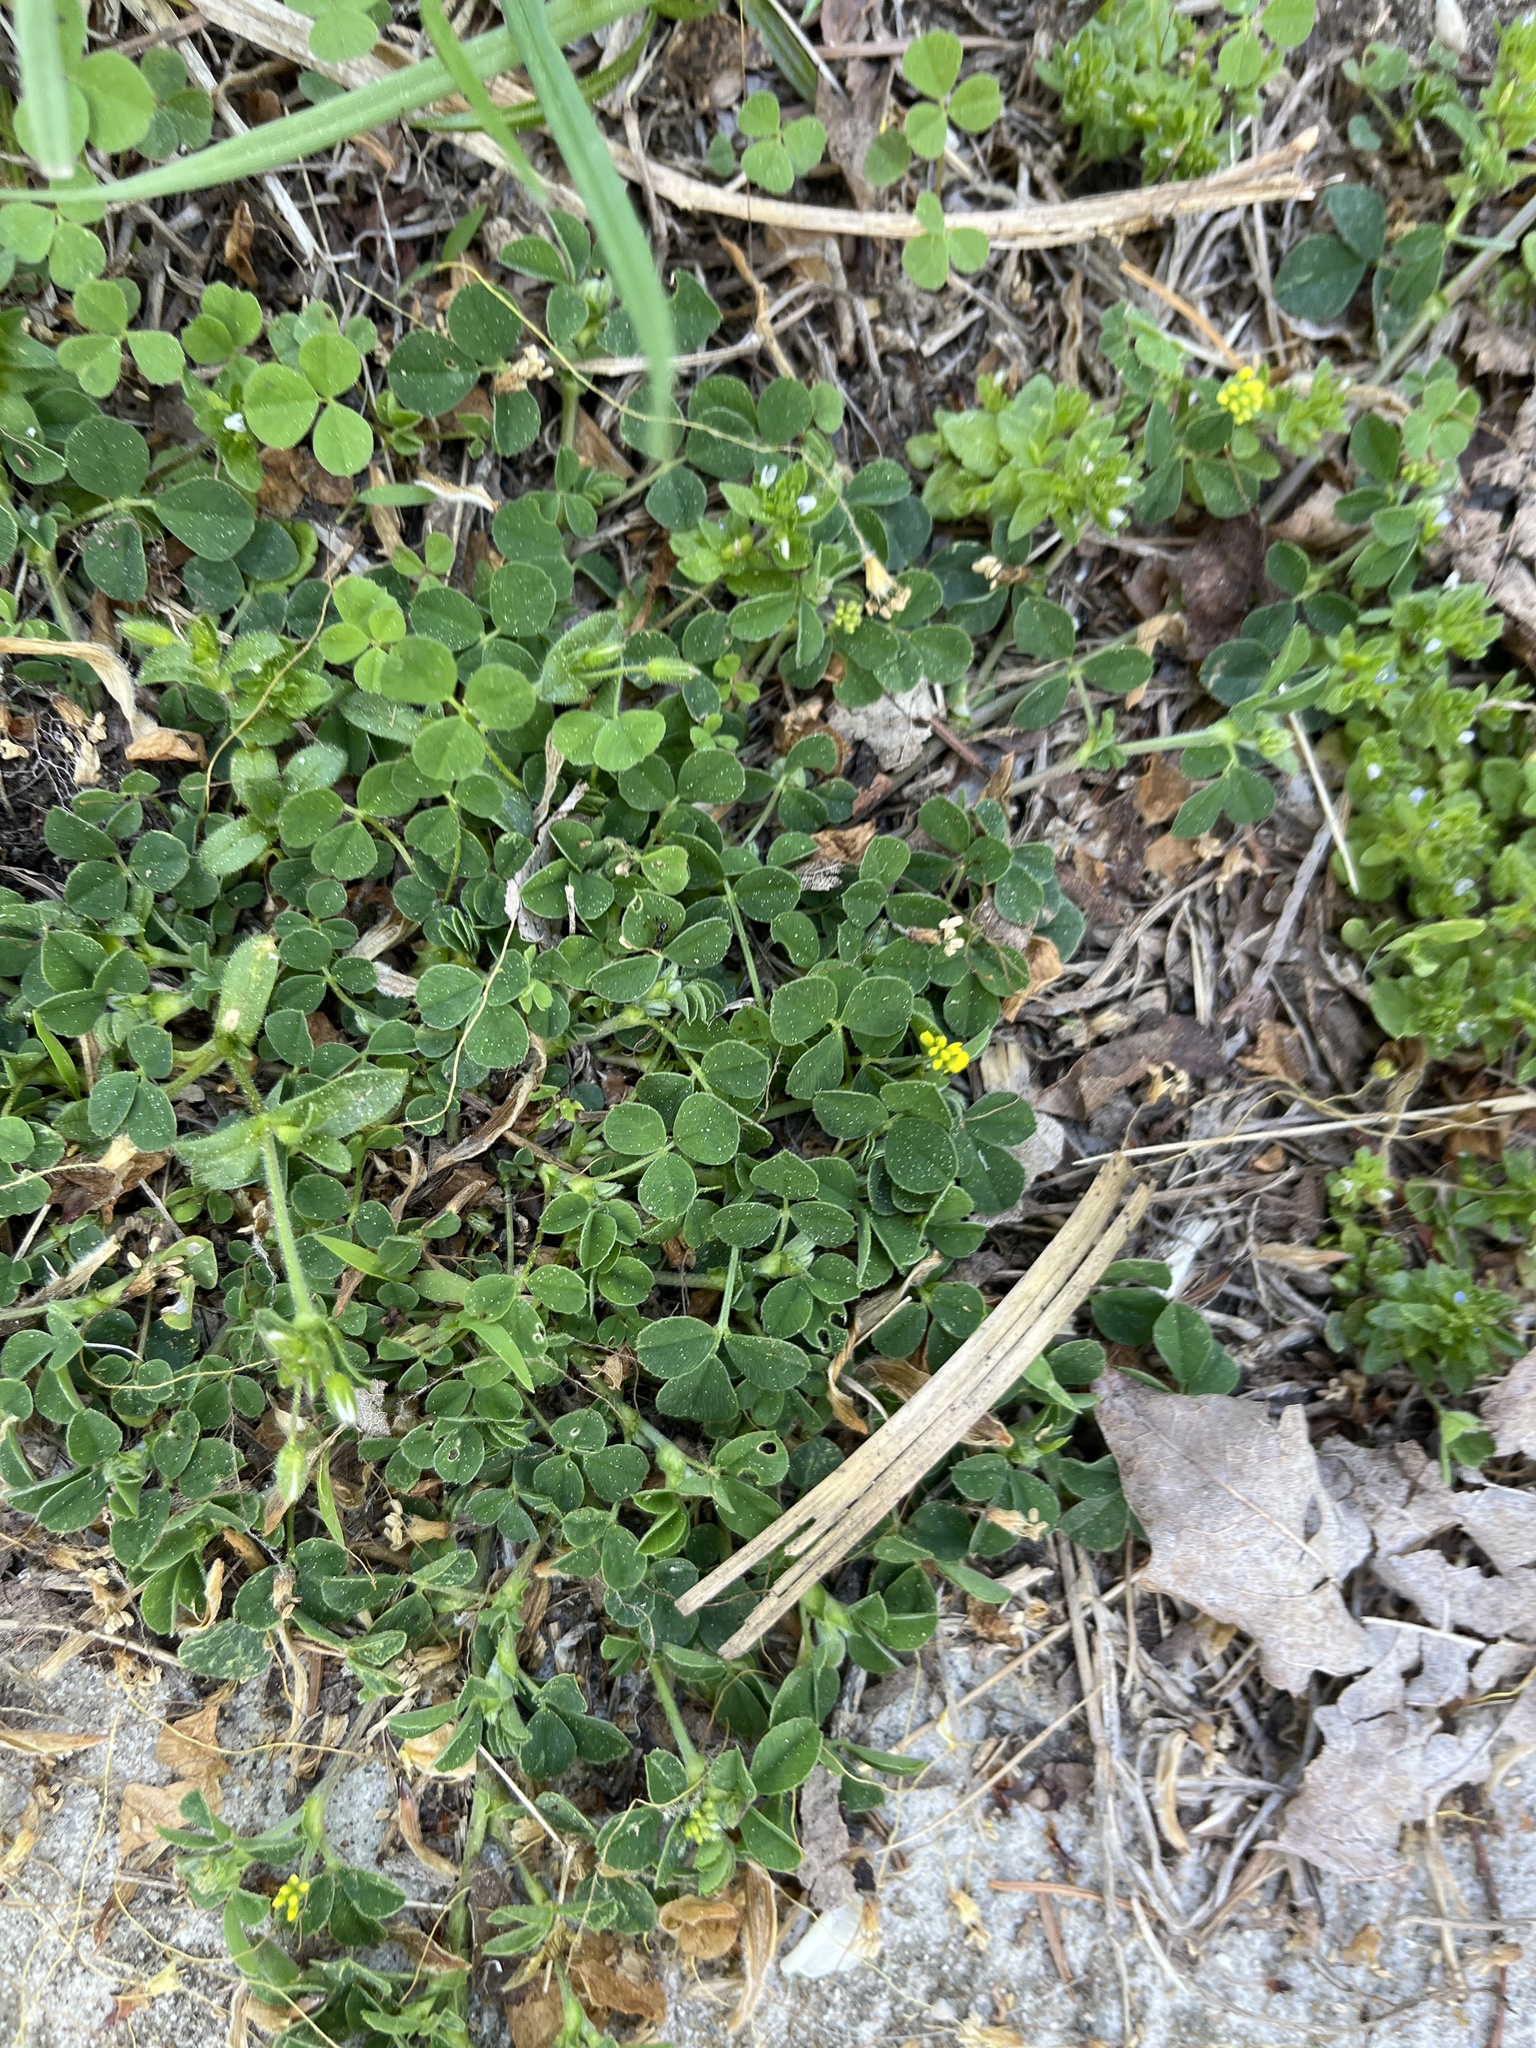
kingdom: Plantae
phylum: Tracheophyta
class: Magnoliopsida
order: Fabales
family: Fabaceae
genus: Medicago
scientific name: Medicago lupulina
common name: Black medick
